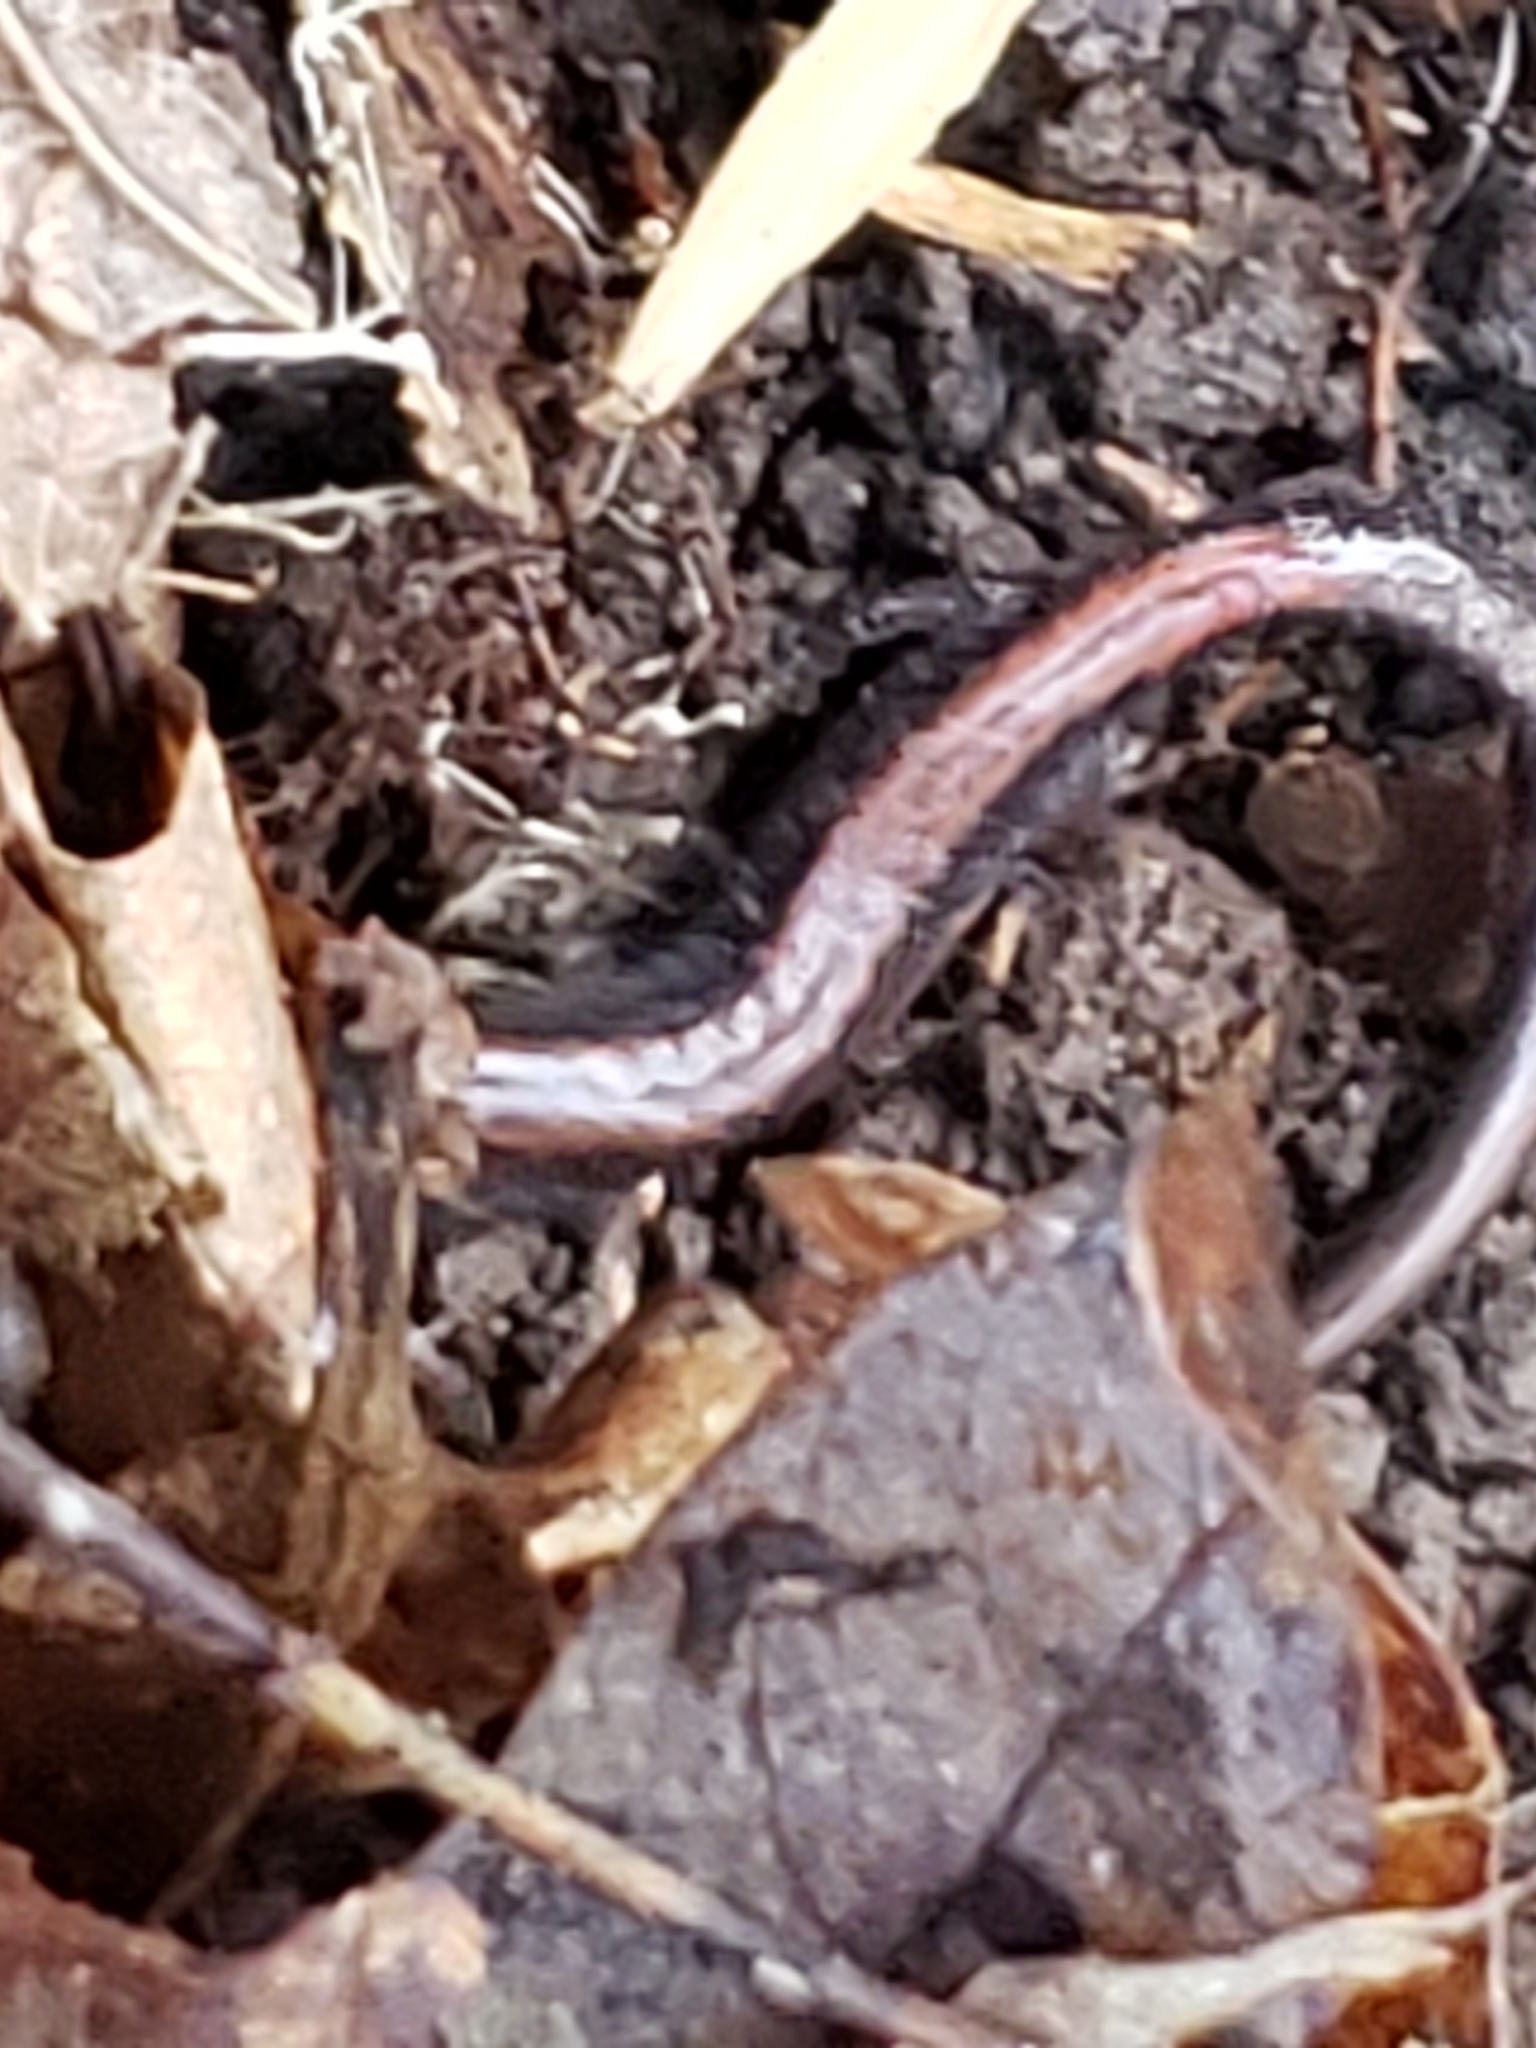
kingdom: Animalia
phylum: Chordata
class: Amphibia
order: Caudata
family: Plethodontidae
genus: Plethodon
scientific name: Plethodon cinereus
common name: Redback salamander
